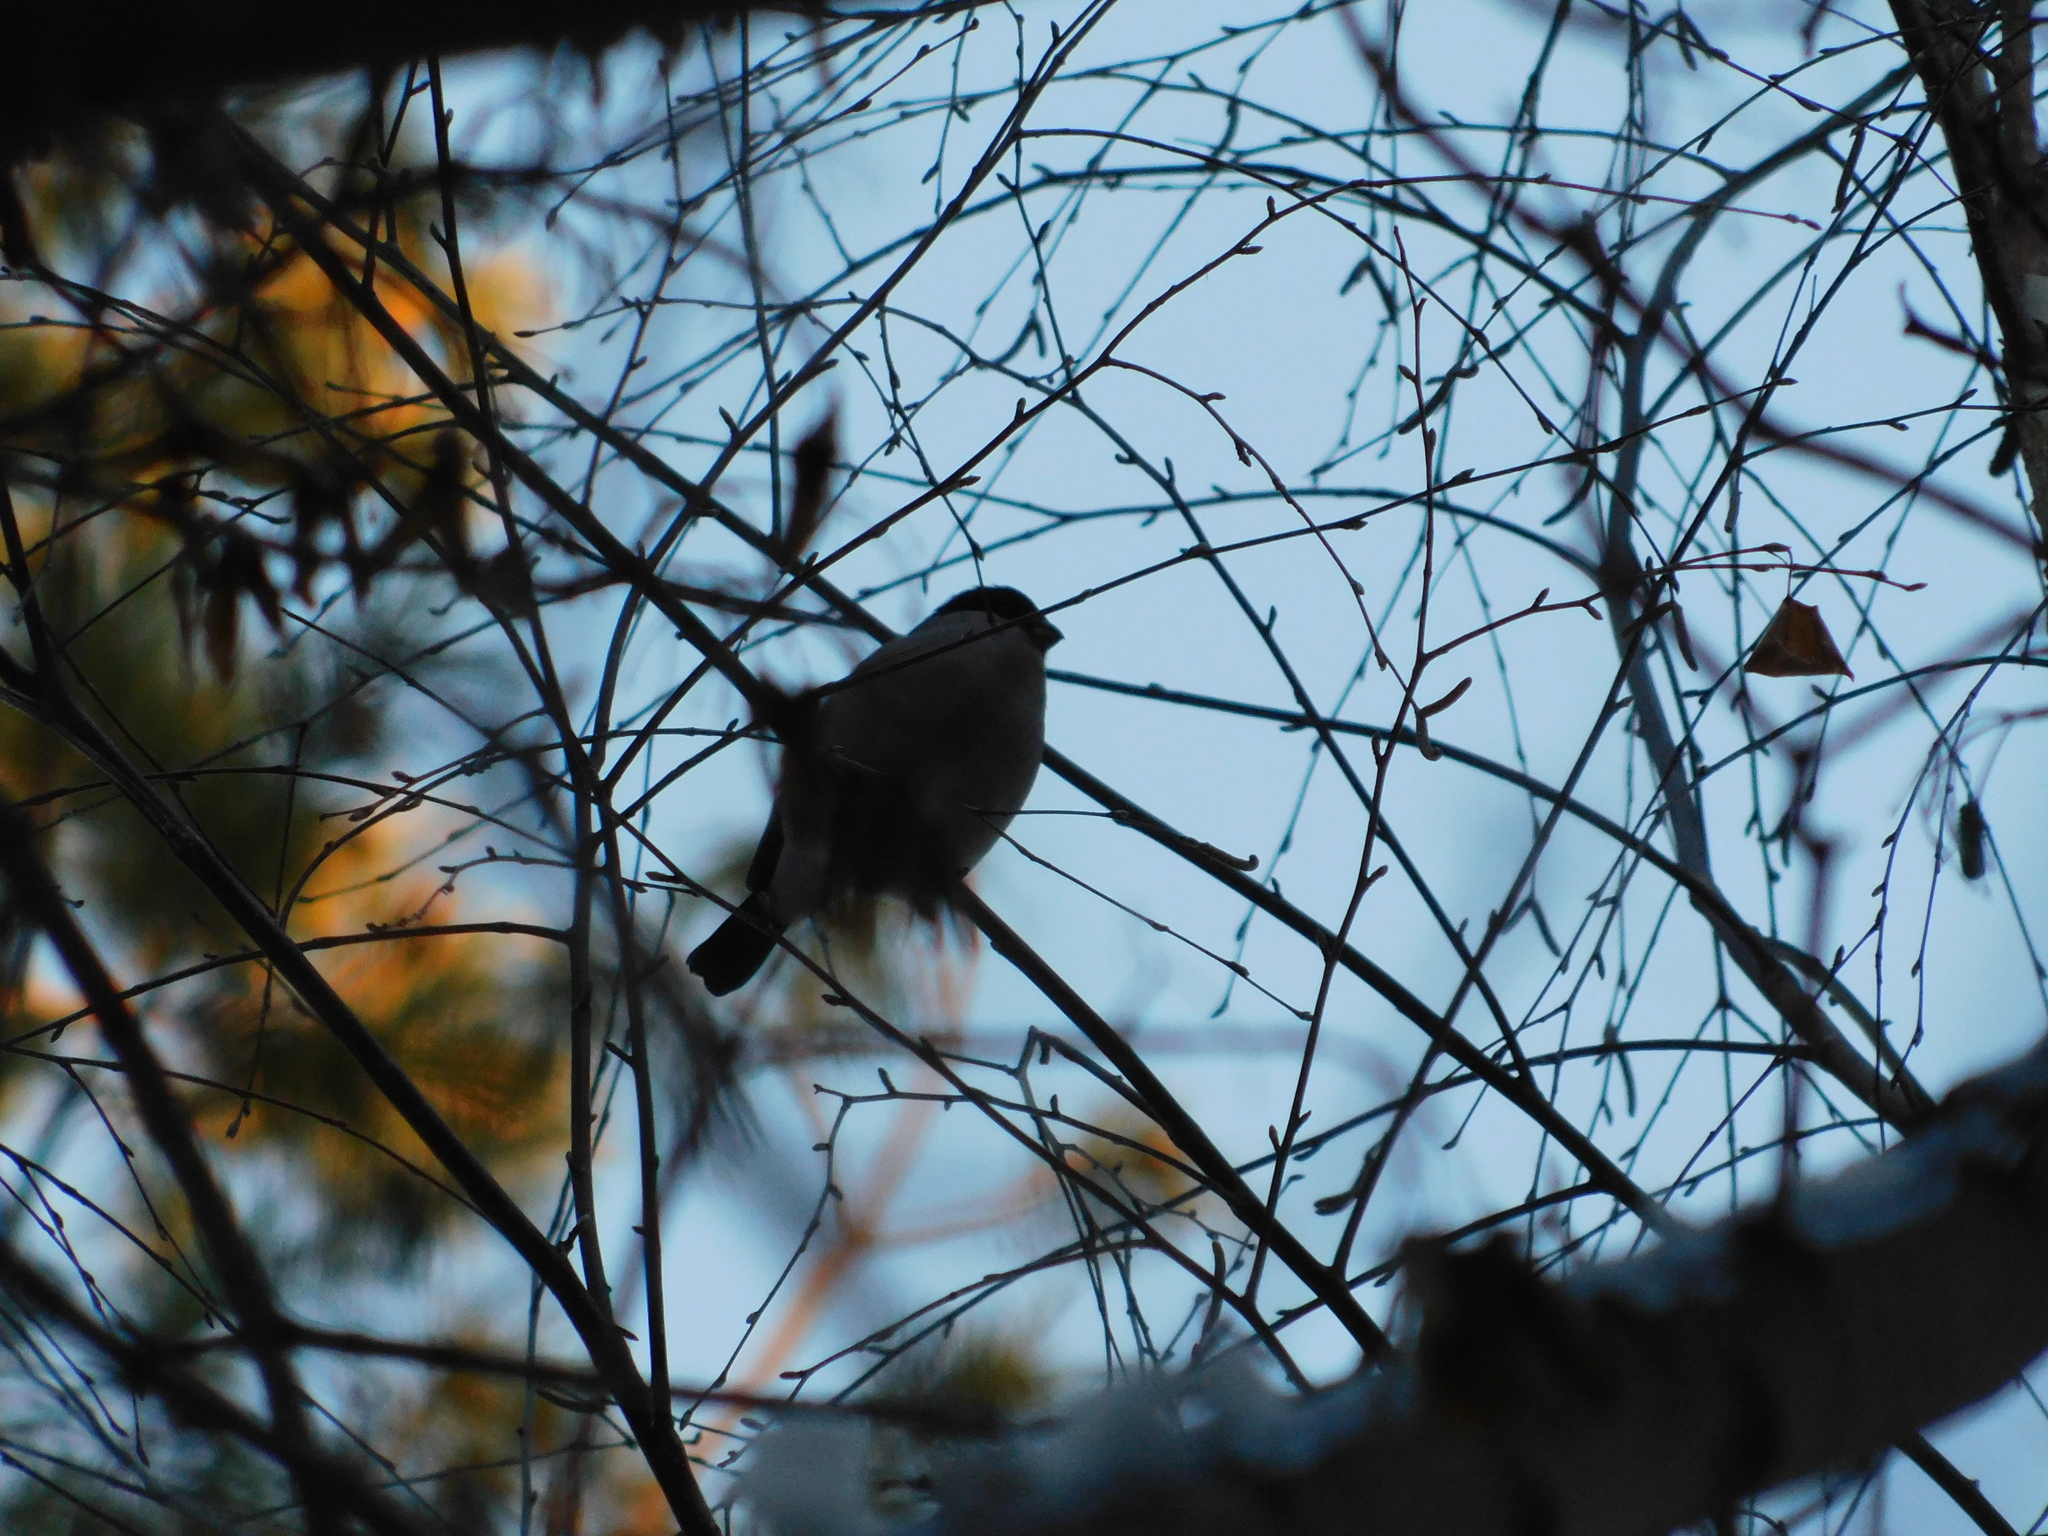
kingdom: Animalia
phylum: Chordata
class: Aves
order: Passeriformes
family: Fringillidae
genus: Pyrrhula
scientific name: Pyrrhula pyrrhula
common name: Eurasian bullfinch
